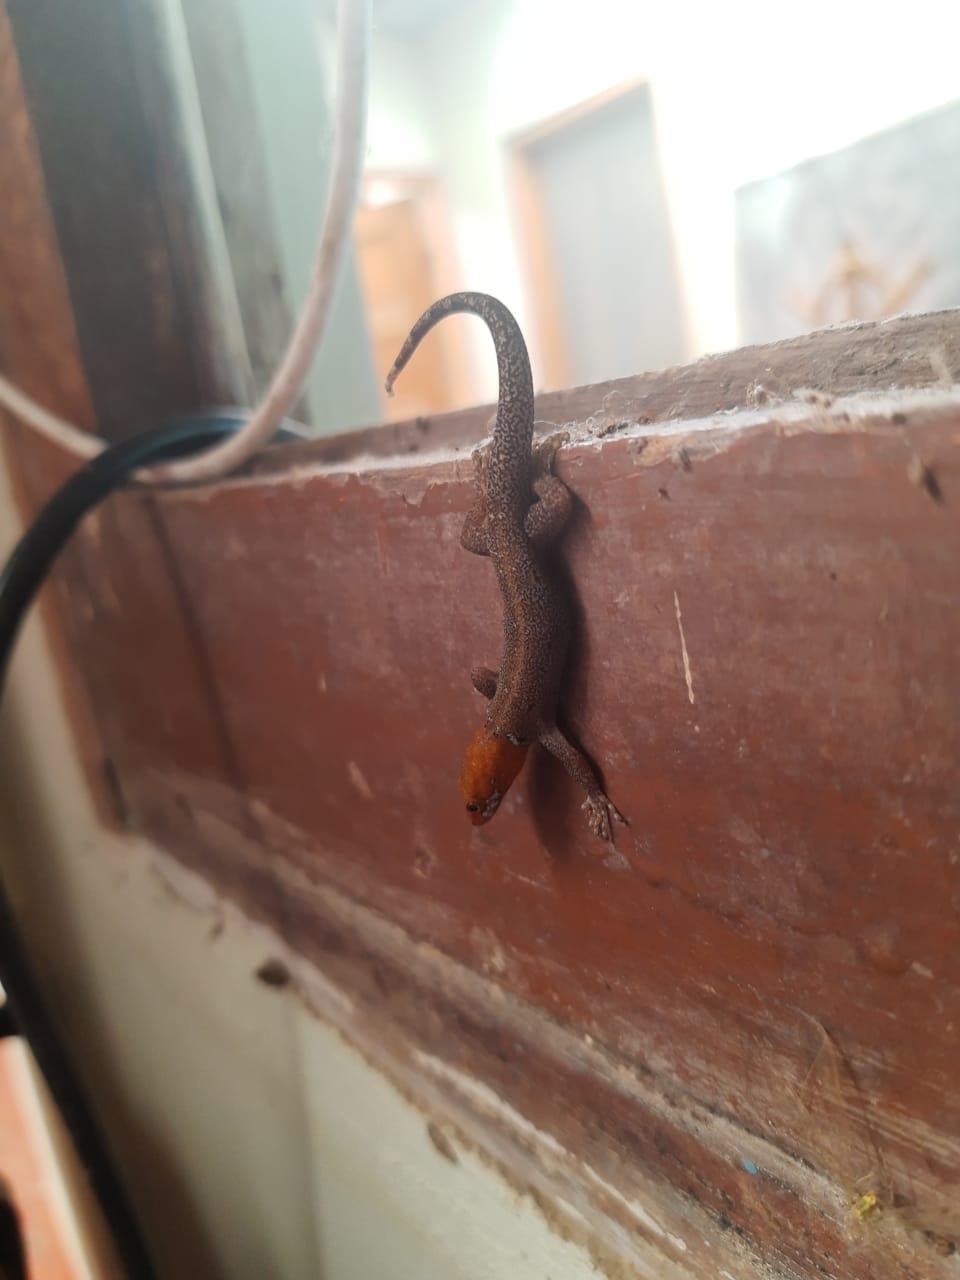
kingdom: Animalia
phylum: Chordata
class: Squamata
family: Sphaerodactylidae
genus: Gonatodes
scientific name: Gonatodes albogularis
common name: Yellow-headed gecko
